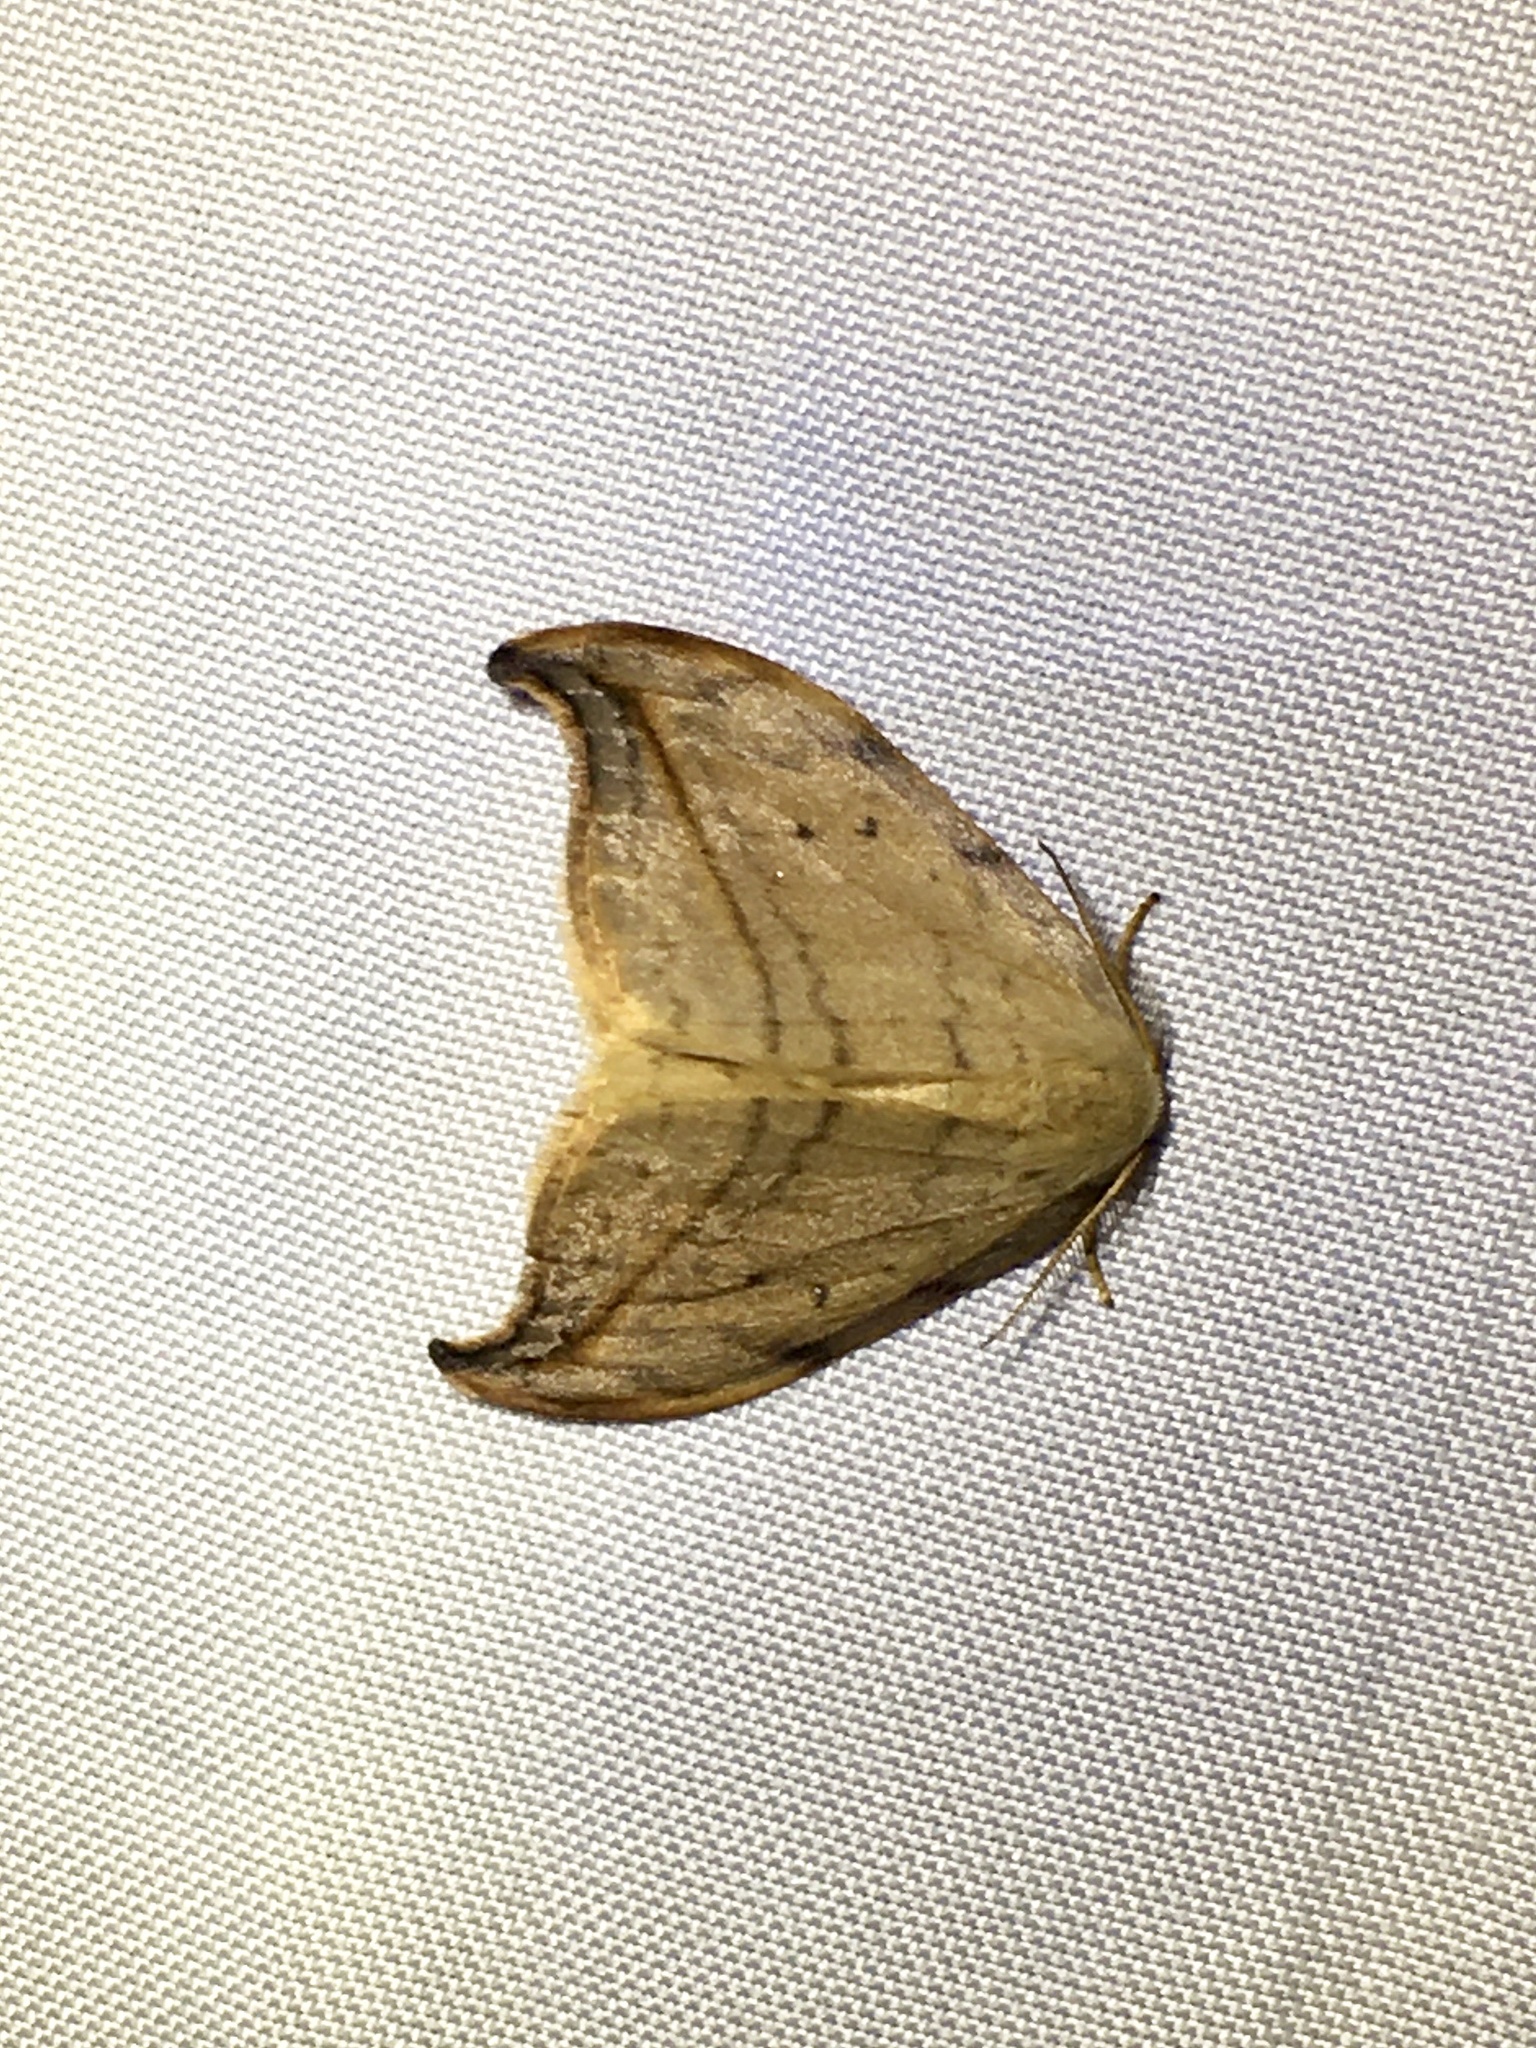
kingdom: Animalia
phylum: Arthropoda
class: Insecta
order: Lepidoptera
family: Drepanidae
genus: Drepana
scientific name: Drepana arcuata
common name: Arched hooktip moth
